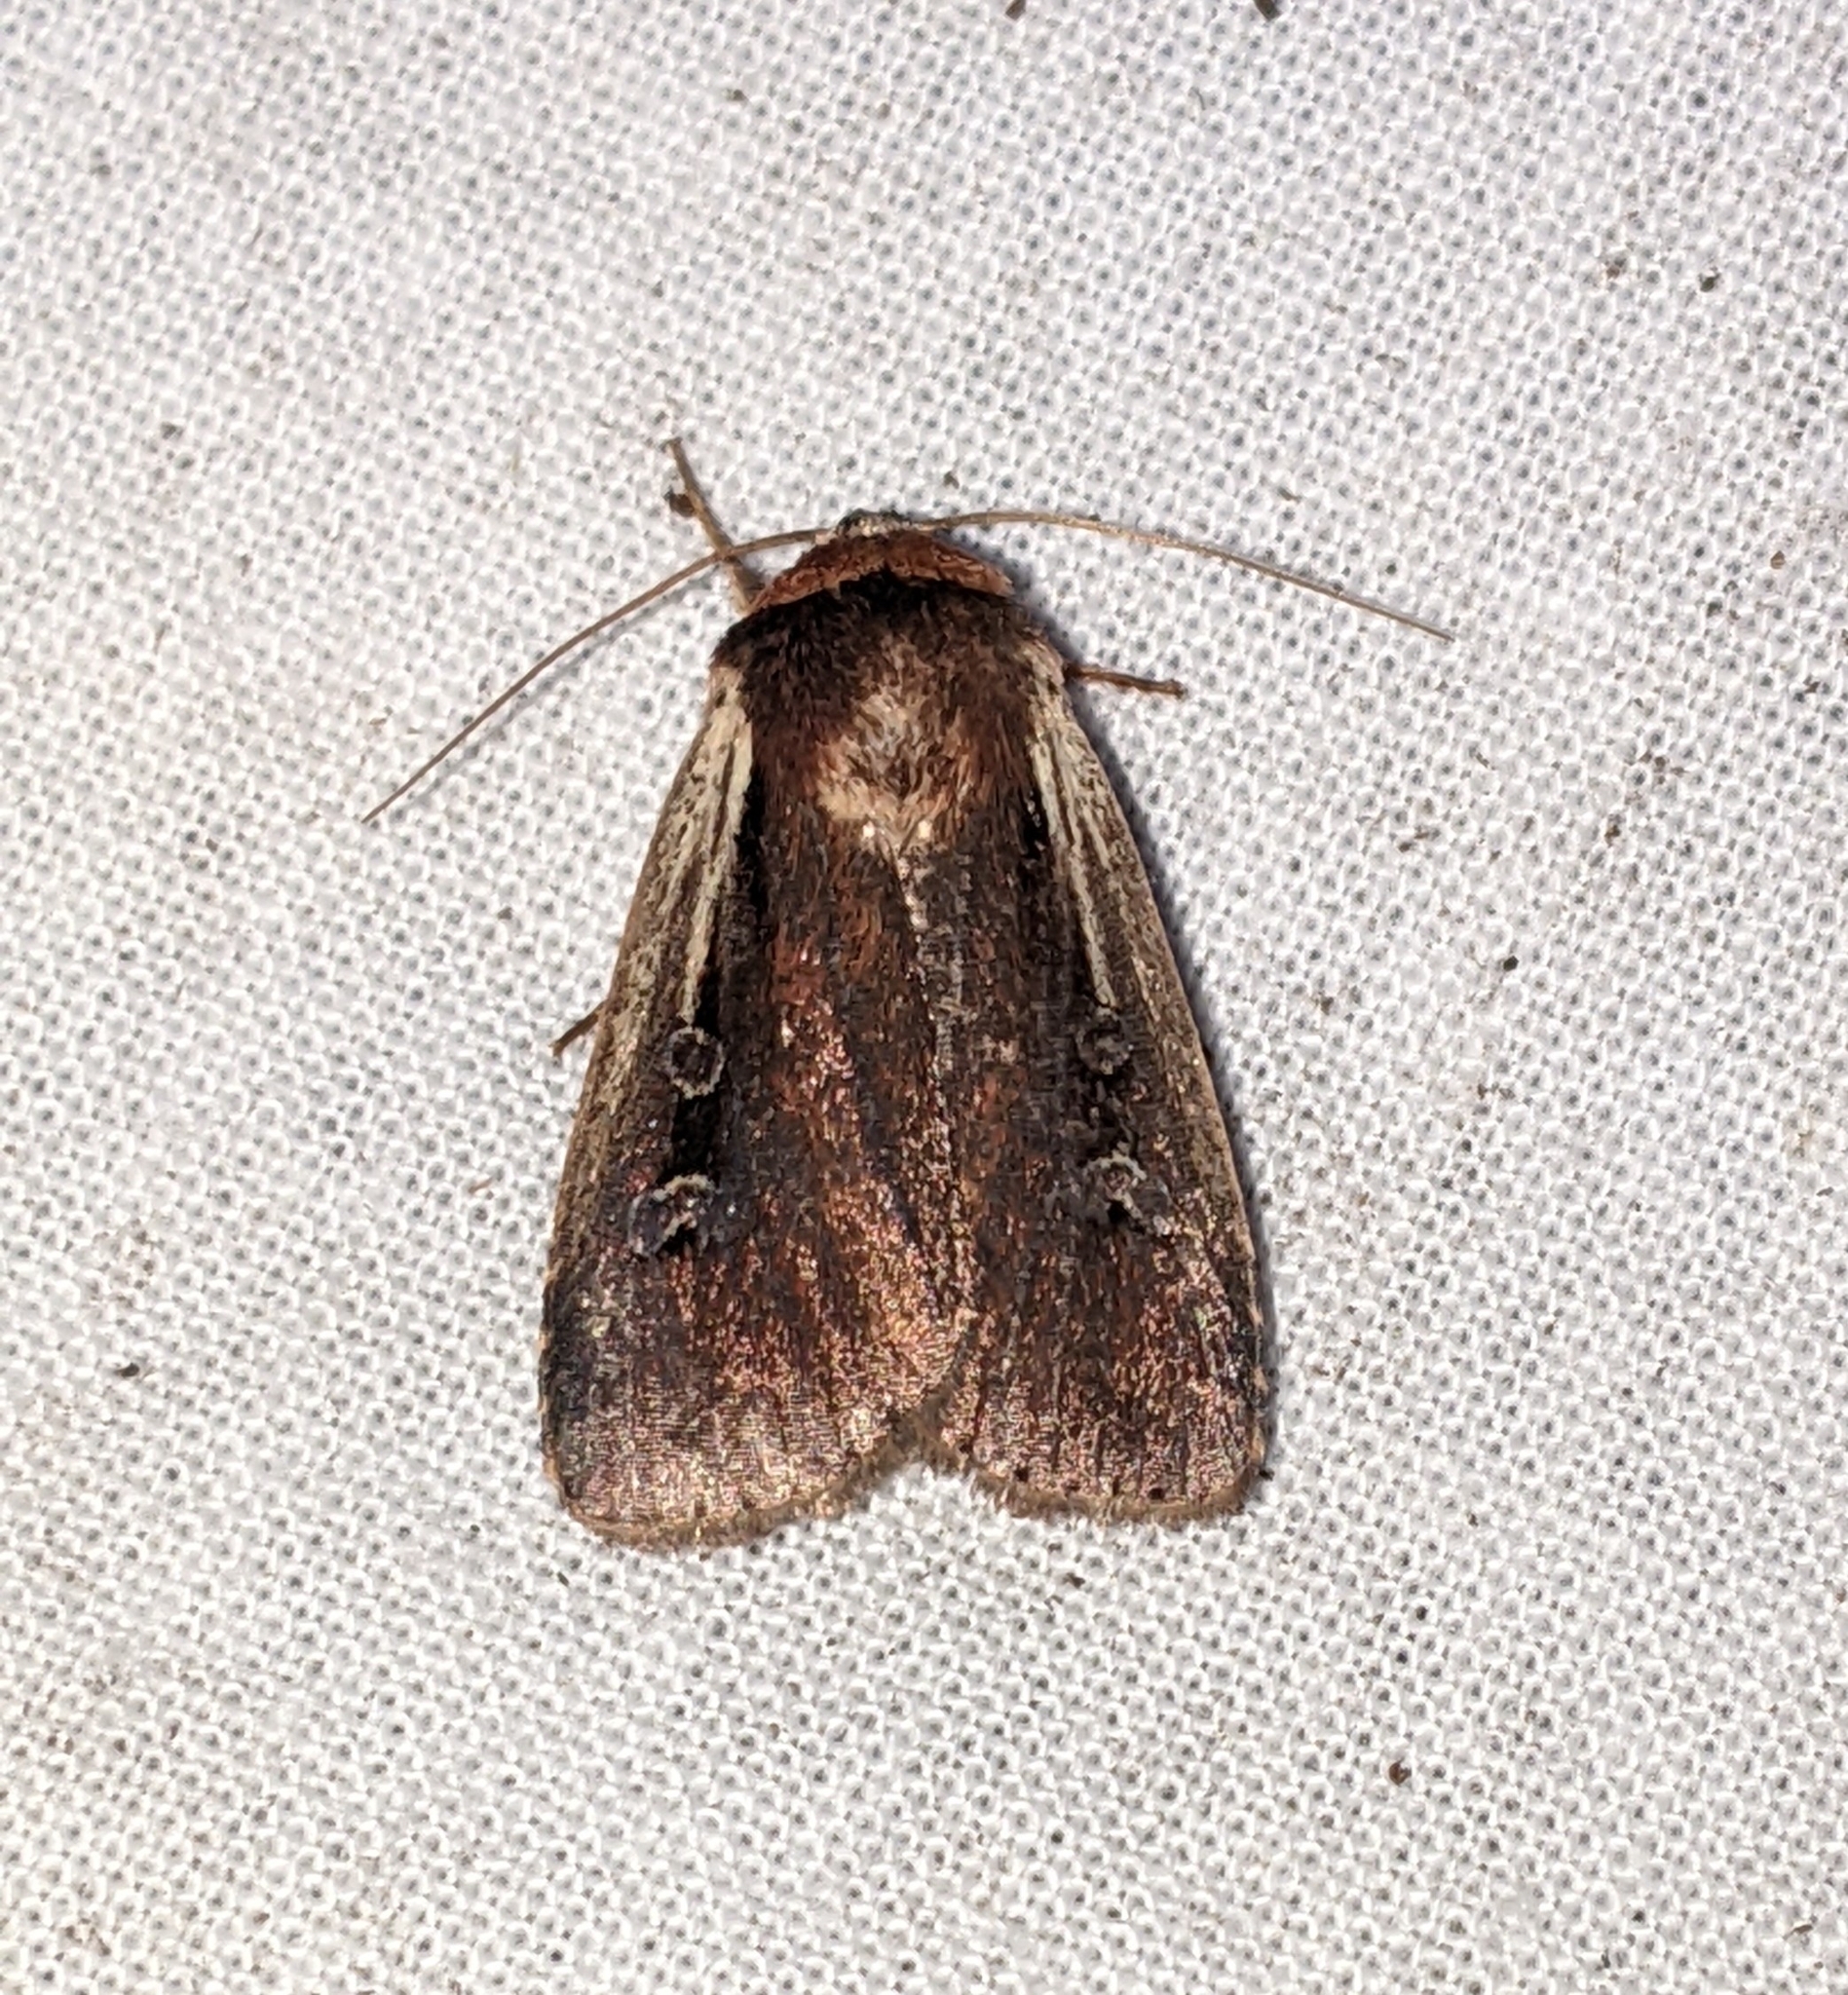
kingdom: Animalia
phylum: Arthropoda
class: Insecta
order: Lepidoptera
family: Noctuidae
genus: Ochropleura
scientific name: Ochropleura implecta
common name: Flame-shouldered dart
